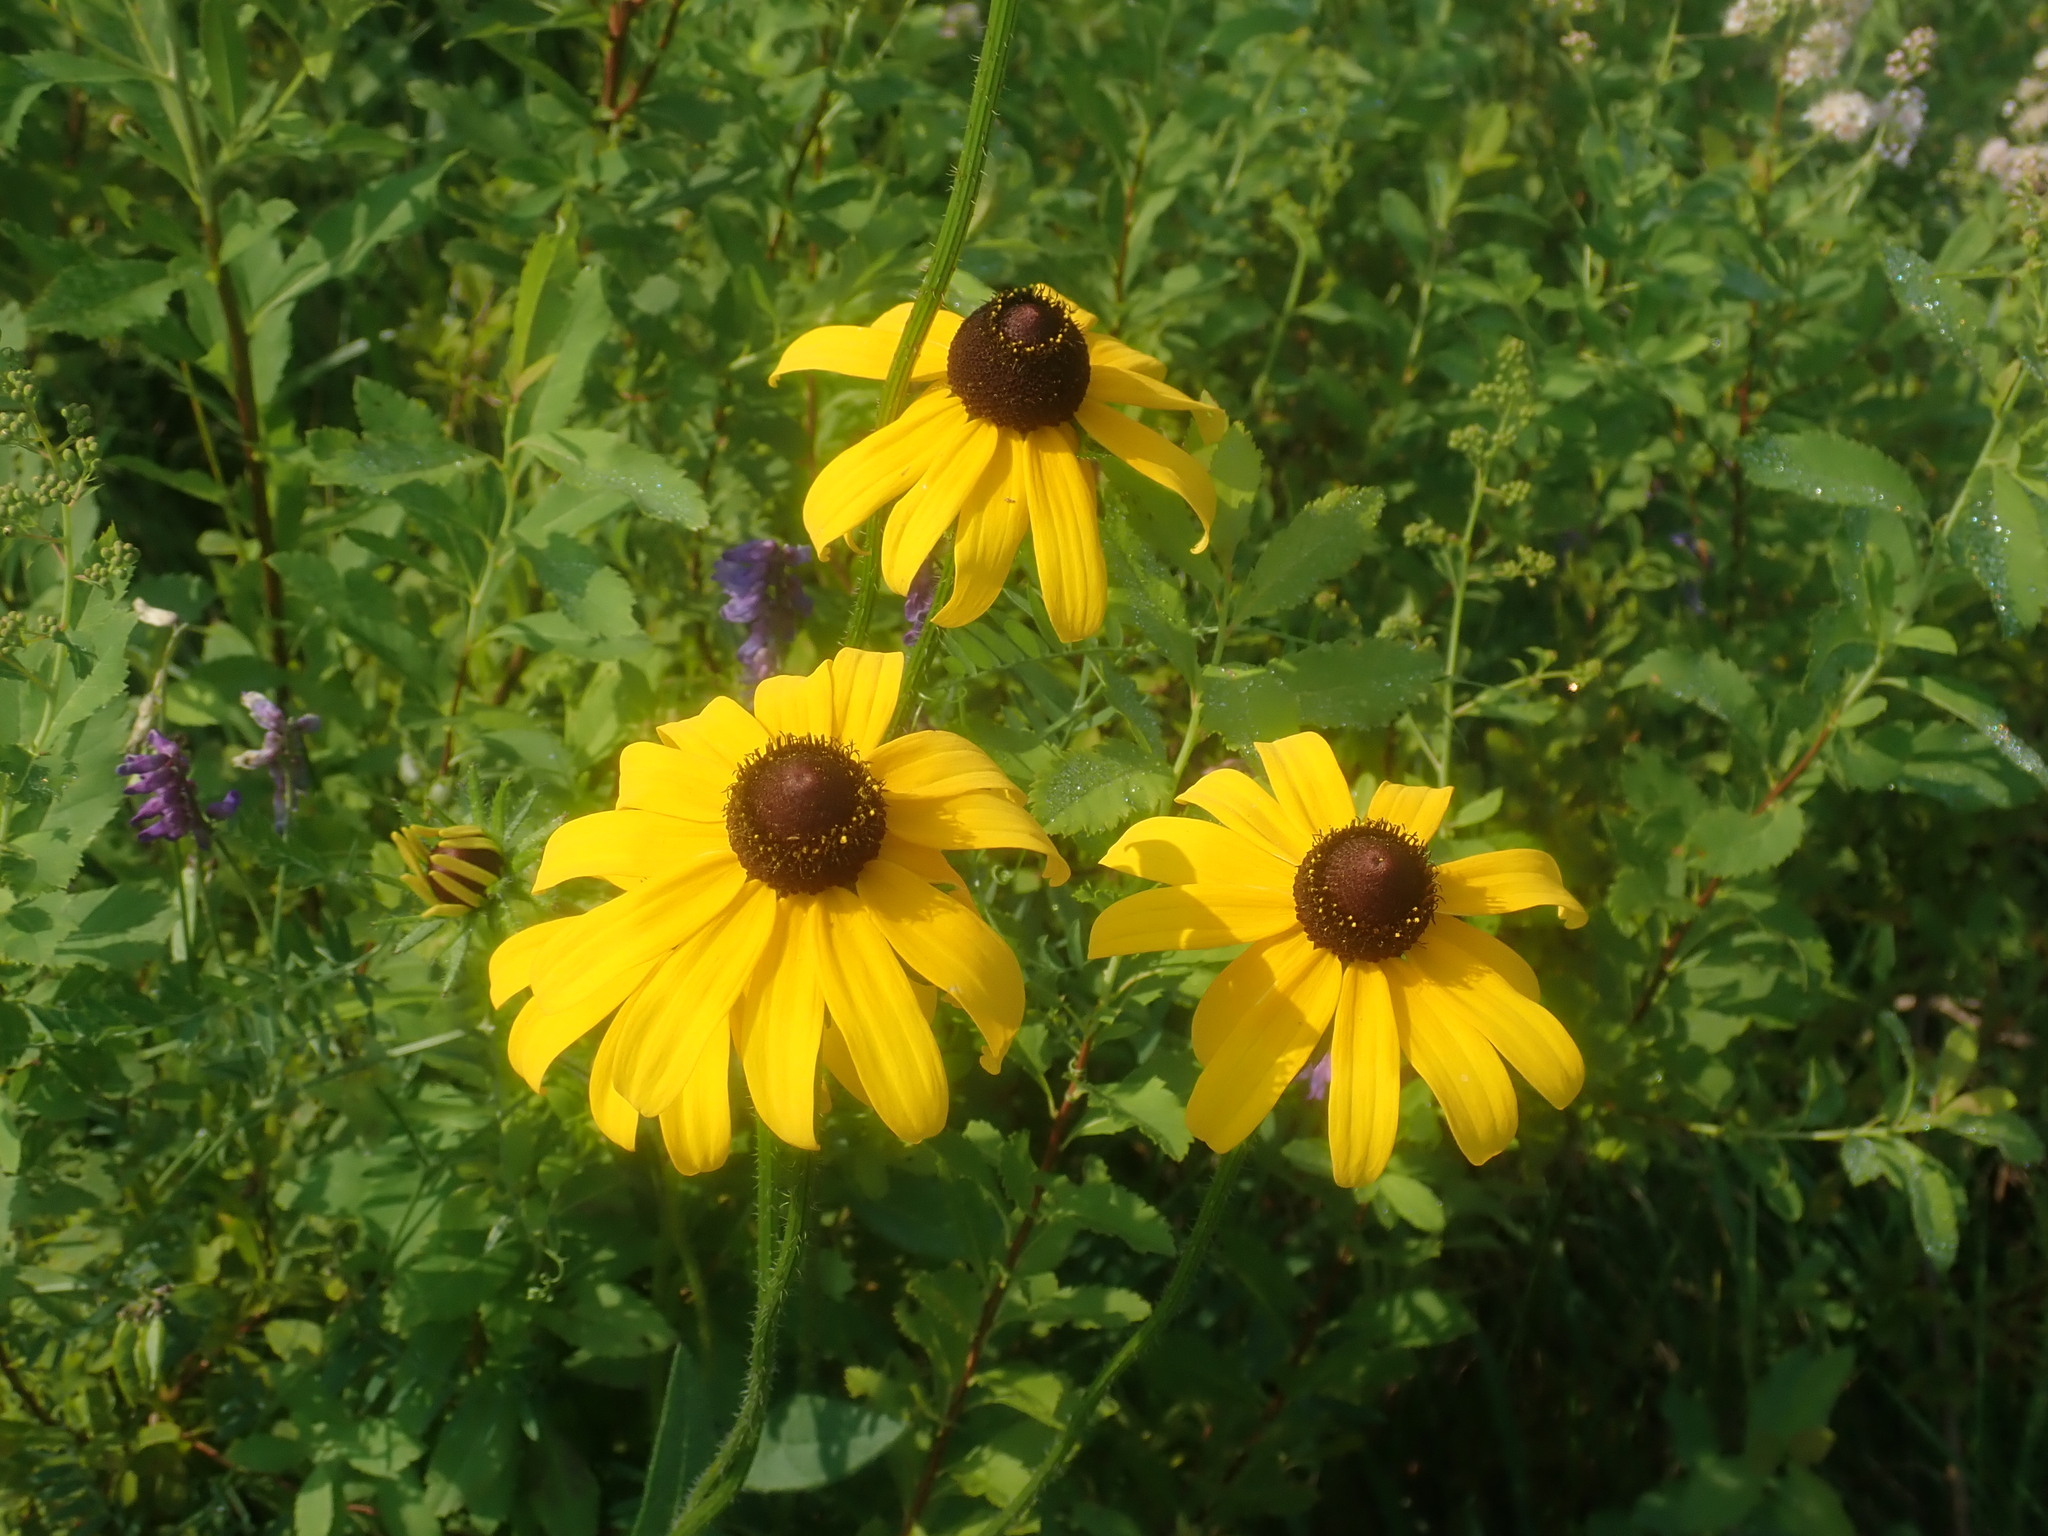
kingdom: Plantae
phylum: Tracheophyta
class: Magnoliopsida
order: Asterales
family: Asteraceae
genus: Rudbeckia
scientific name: Rudbeckia hirta
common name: Black-eyed-susan
